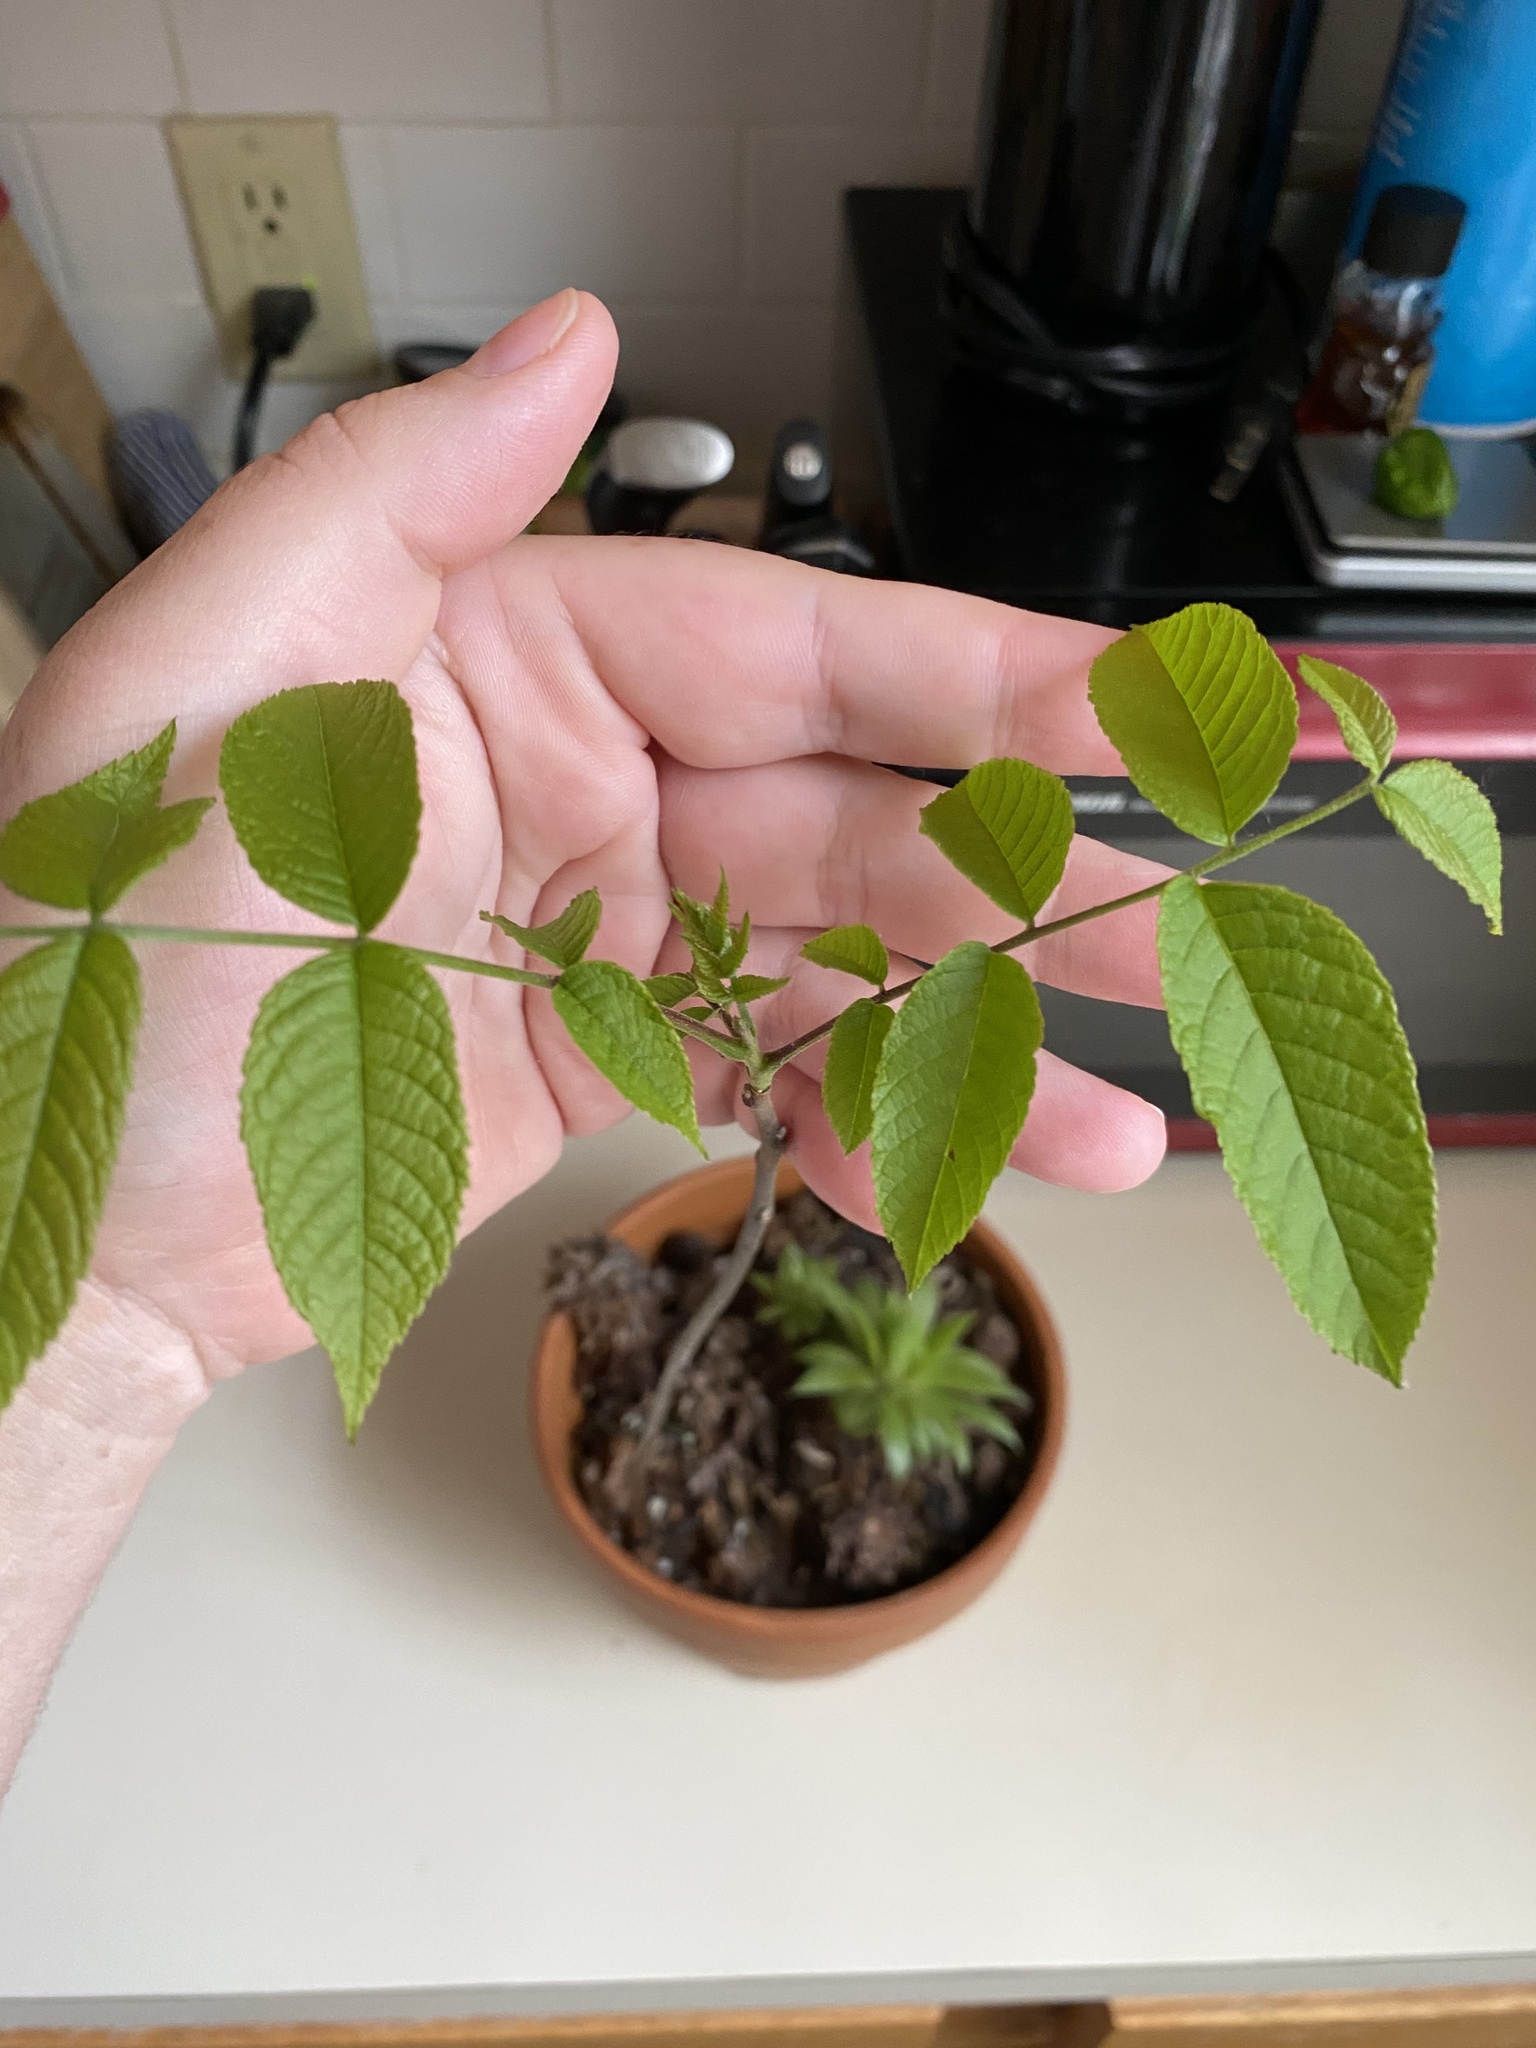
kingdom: Plantae
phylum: Tracheophyta
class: Magnoliopsida
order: Fagales
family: Juglandaceae
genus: Juglans
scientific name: Juglans nigra
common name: Black walnut
